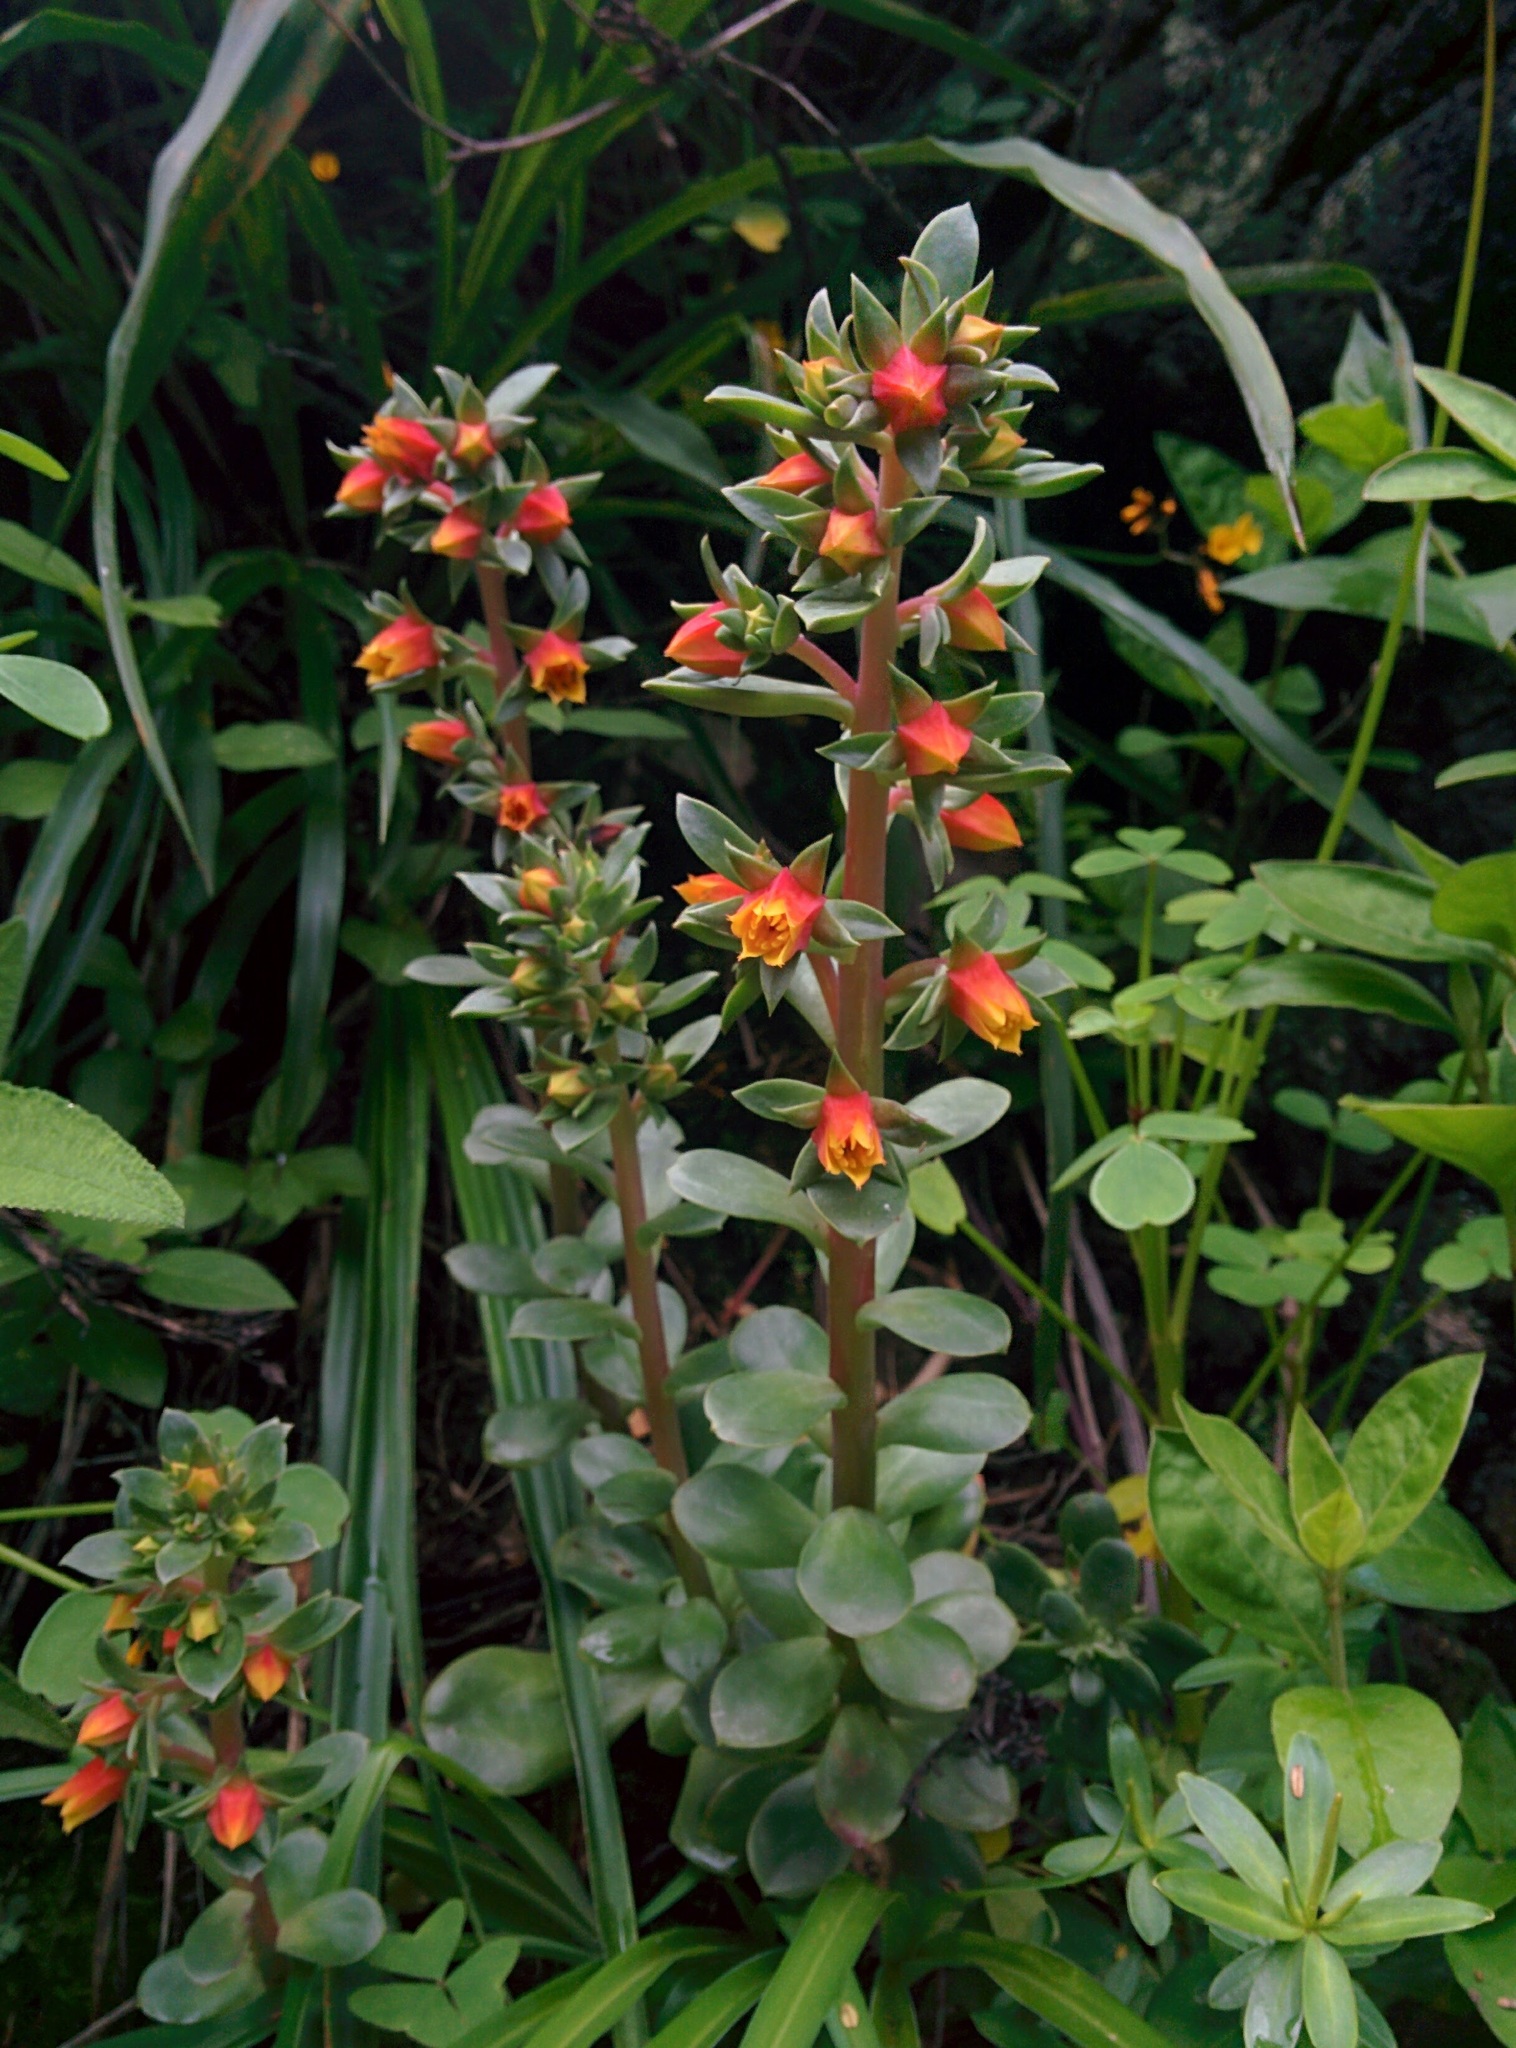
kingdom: Plantae
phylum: Tracheophyta
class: Magnoliopsida
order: Saxifragales
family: Crassulaceae
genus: Echeveria
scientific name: Echeveria quitensis
